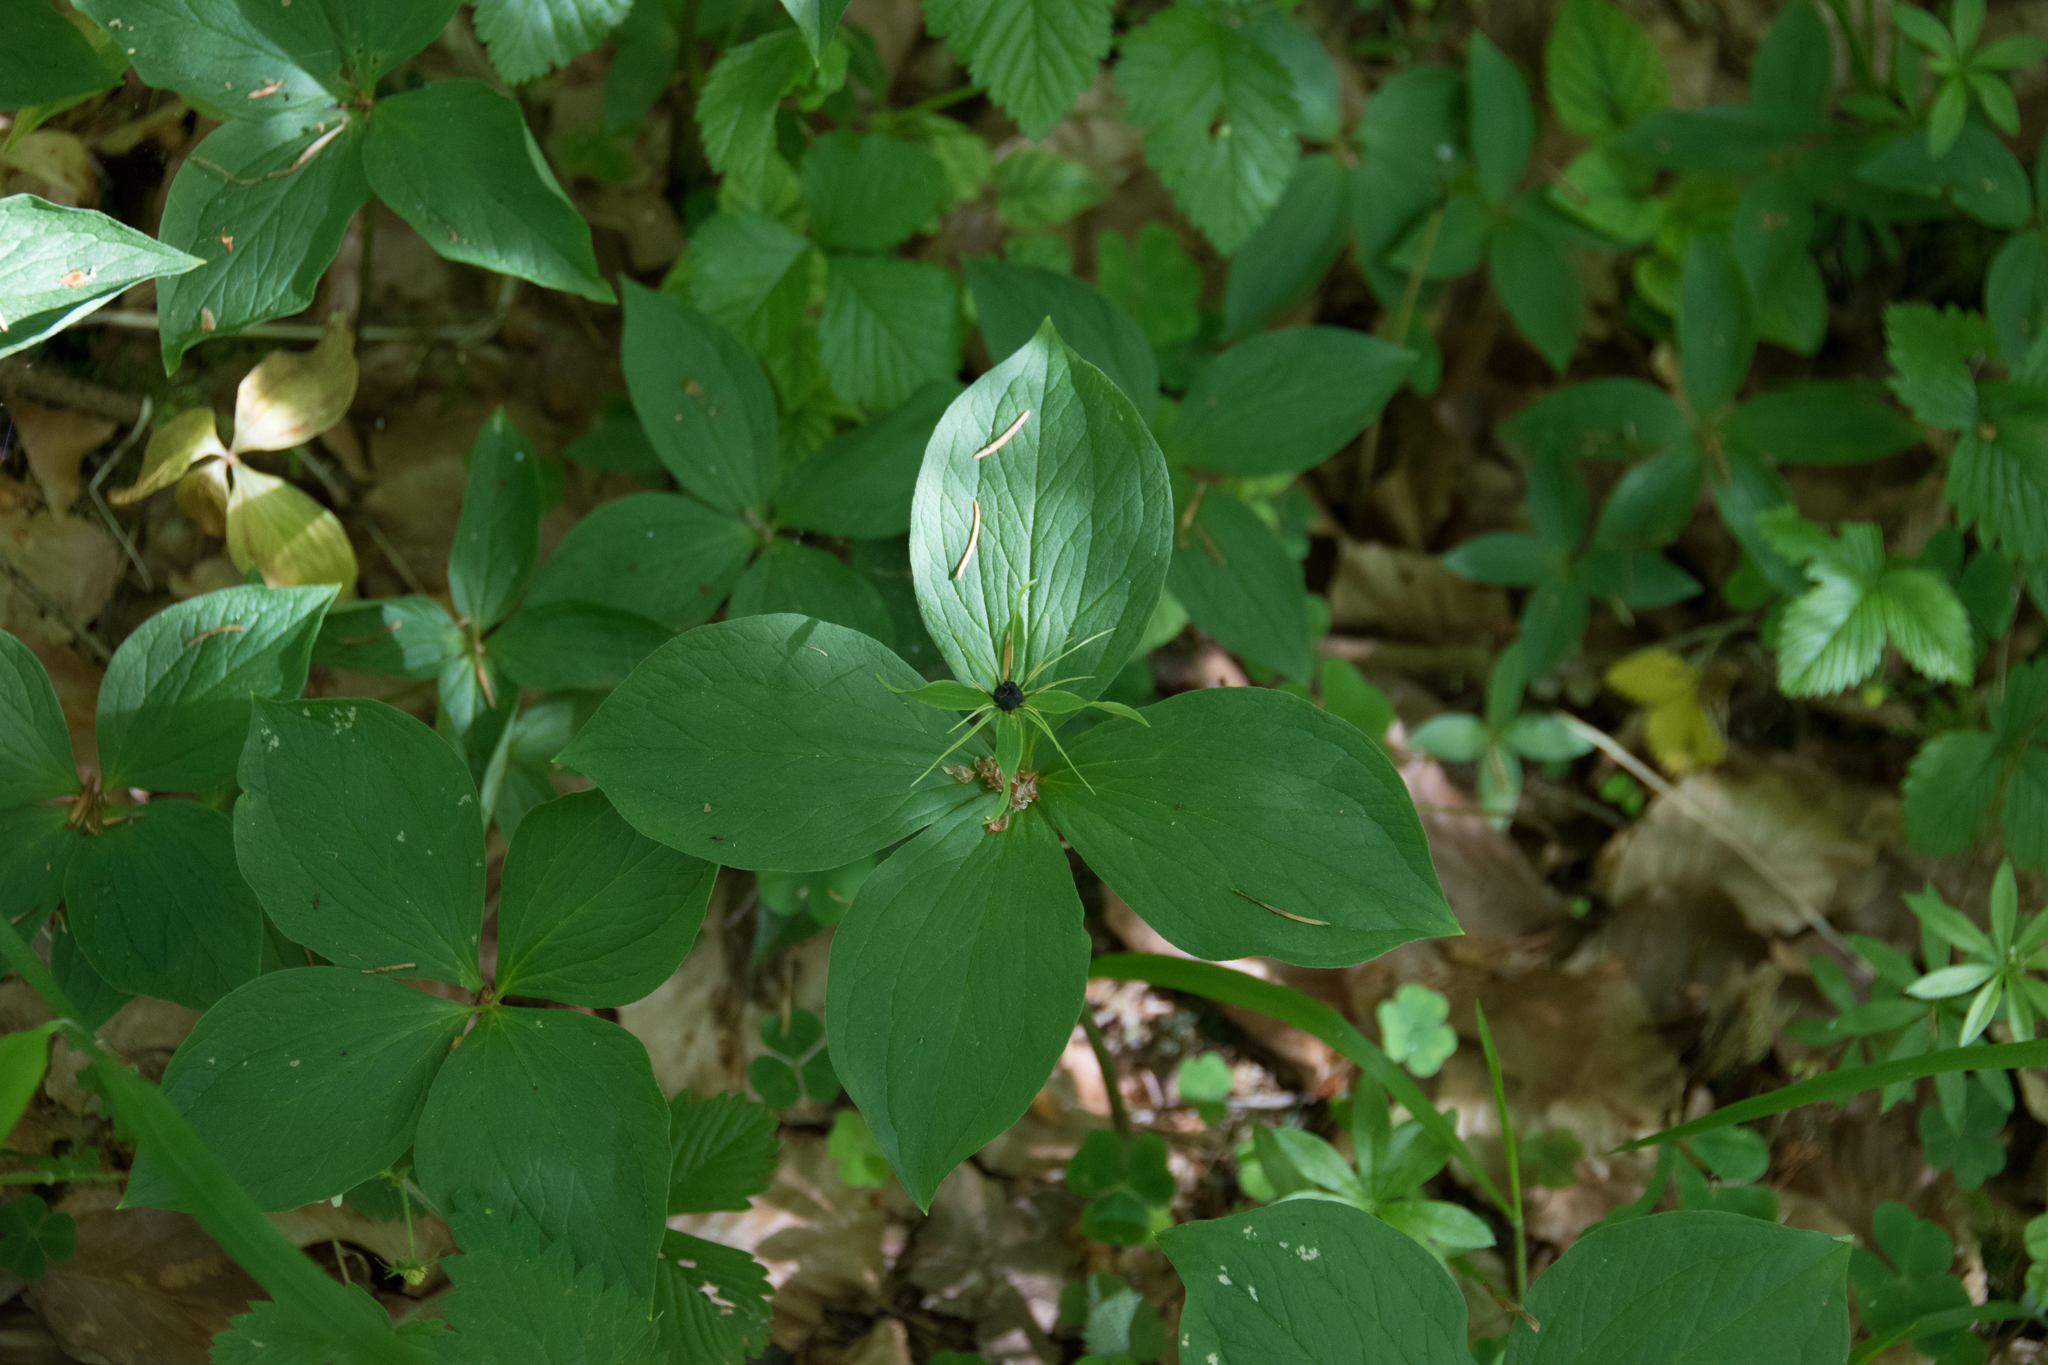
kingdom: Plantae
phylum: Tracheophyta
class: Liliopsida
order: Liliales
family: Melanthiaceae
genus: Paris
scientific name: Paris quadrifolia
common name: Herb-paris
